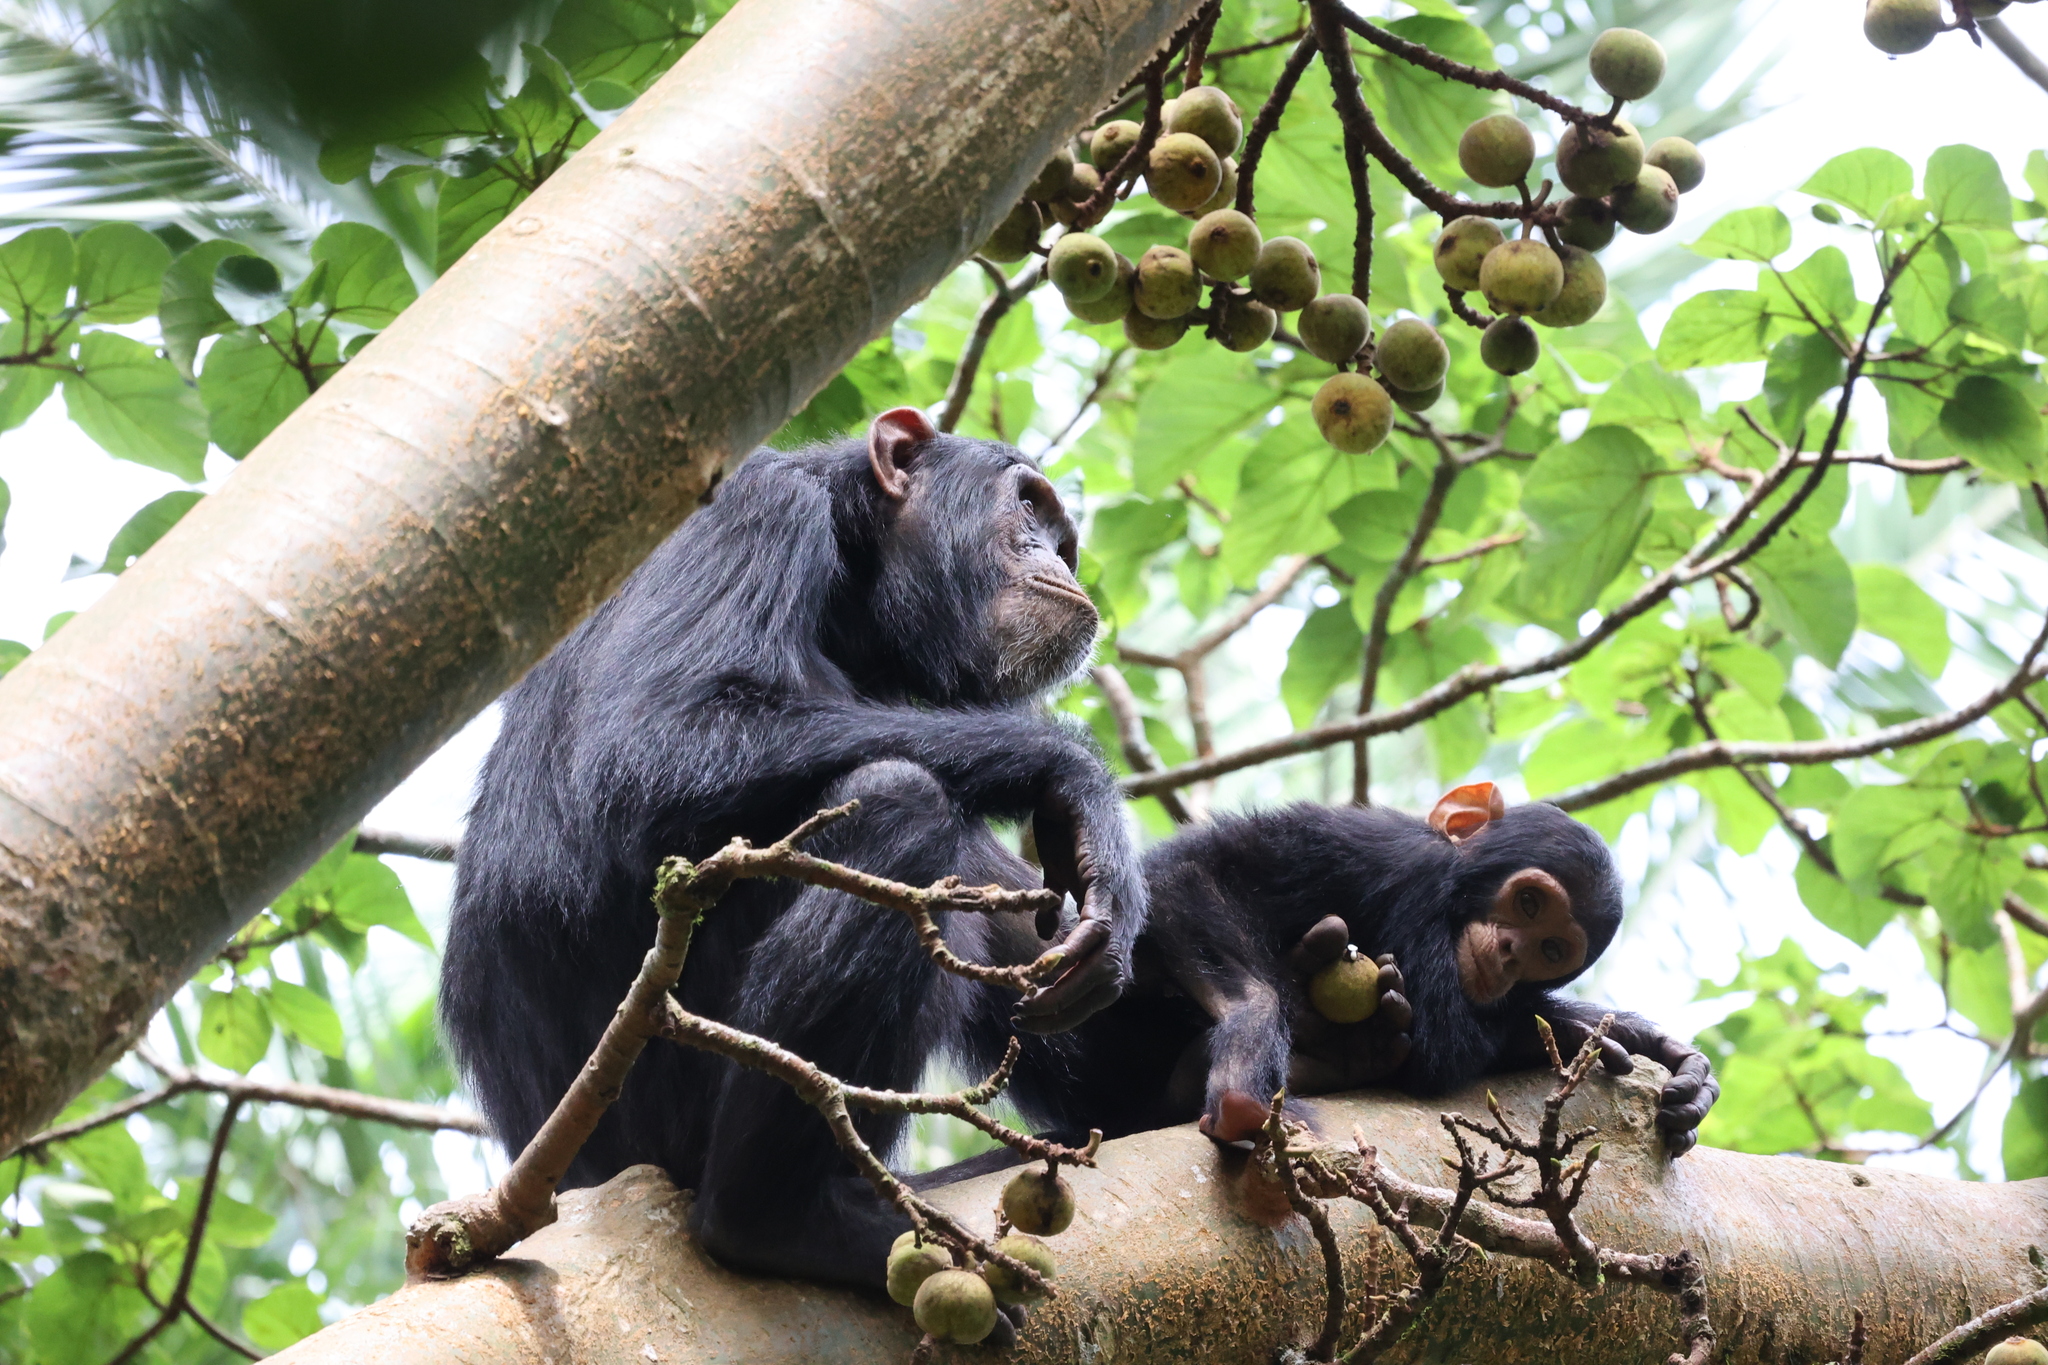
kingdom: Animalia
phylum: Chordata
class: Mammalia
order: Primates
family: Hominidae
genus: Pan
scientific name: Pan troglodytes
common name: Chimpanzee
